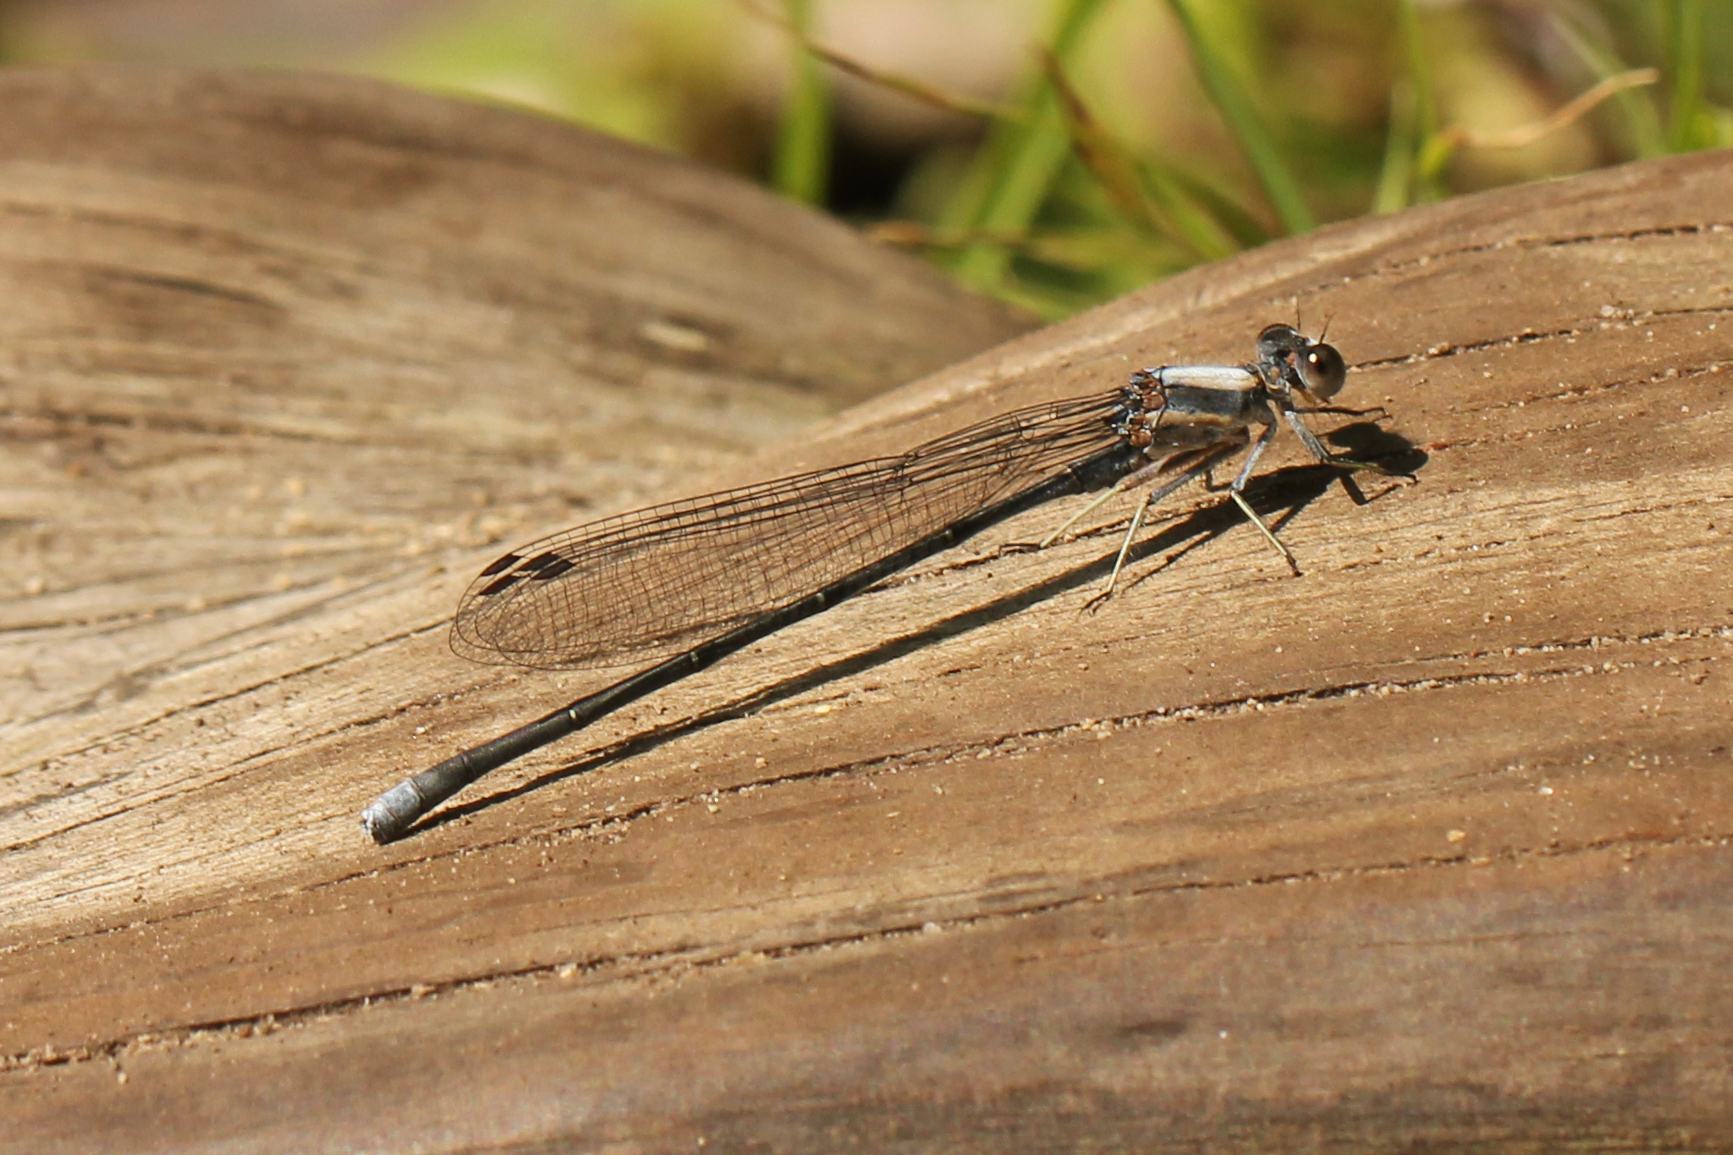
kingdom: Animalia
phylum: Arthropoda
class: Insecta
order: Odonata
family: Coenagrionidae
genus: Argia
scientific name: Argia moesta
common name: Powdered dancer
